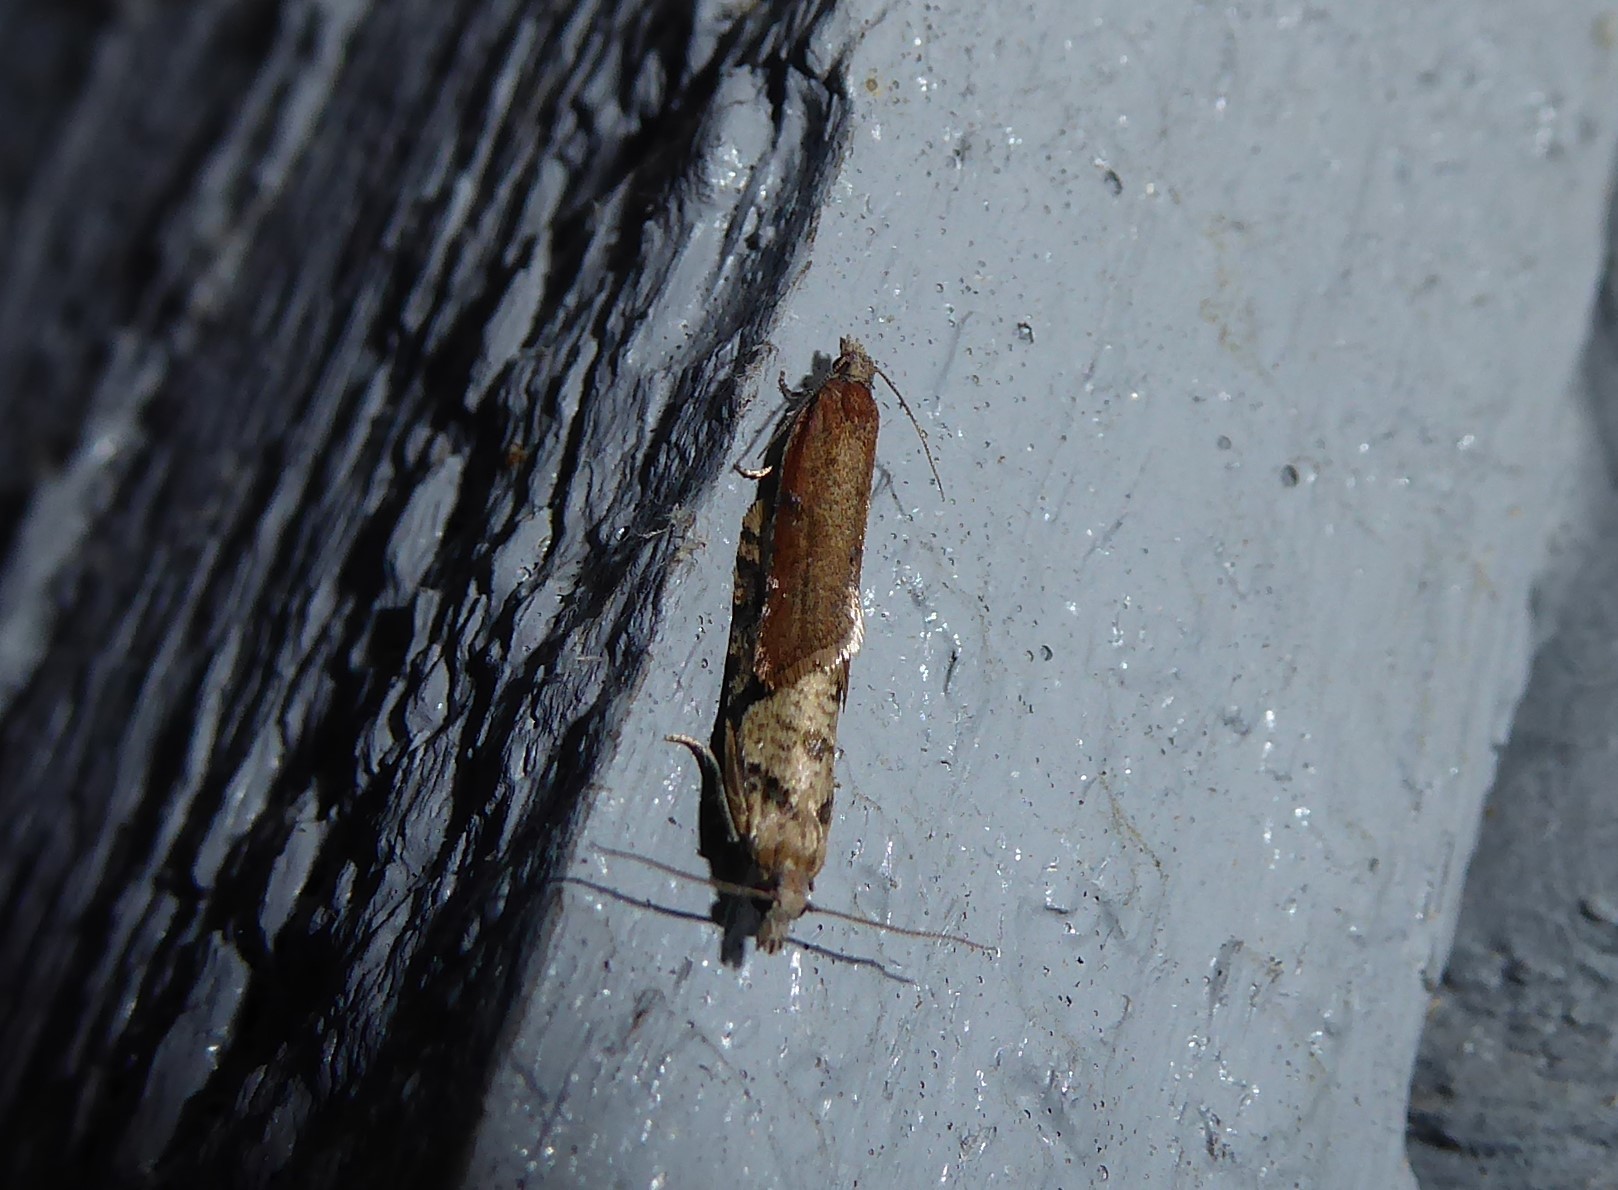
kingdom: Animalia
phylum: Arthropoda
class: Insecta
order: Lepidoptera
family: Tortricidae
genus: Capua
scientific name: Capua semiferana
